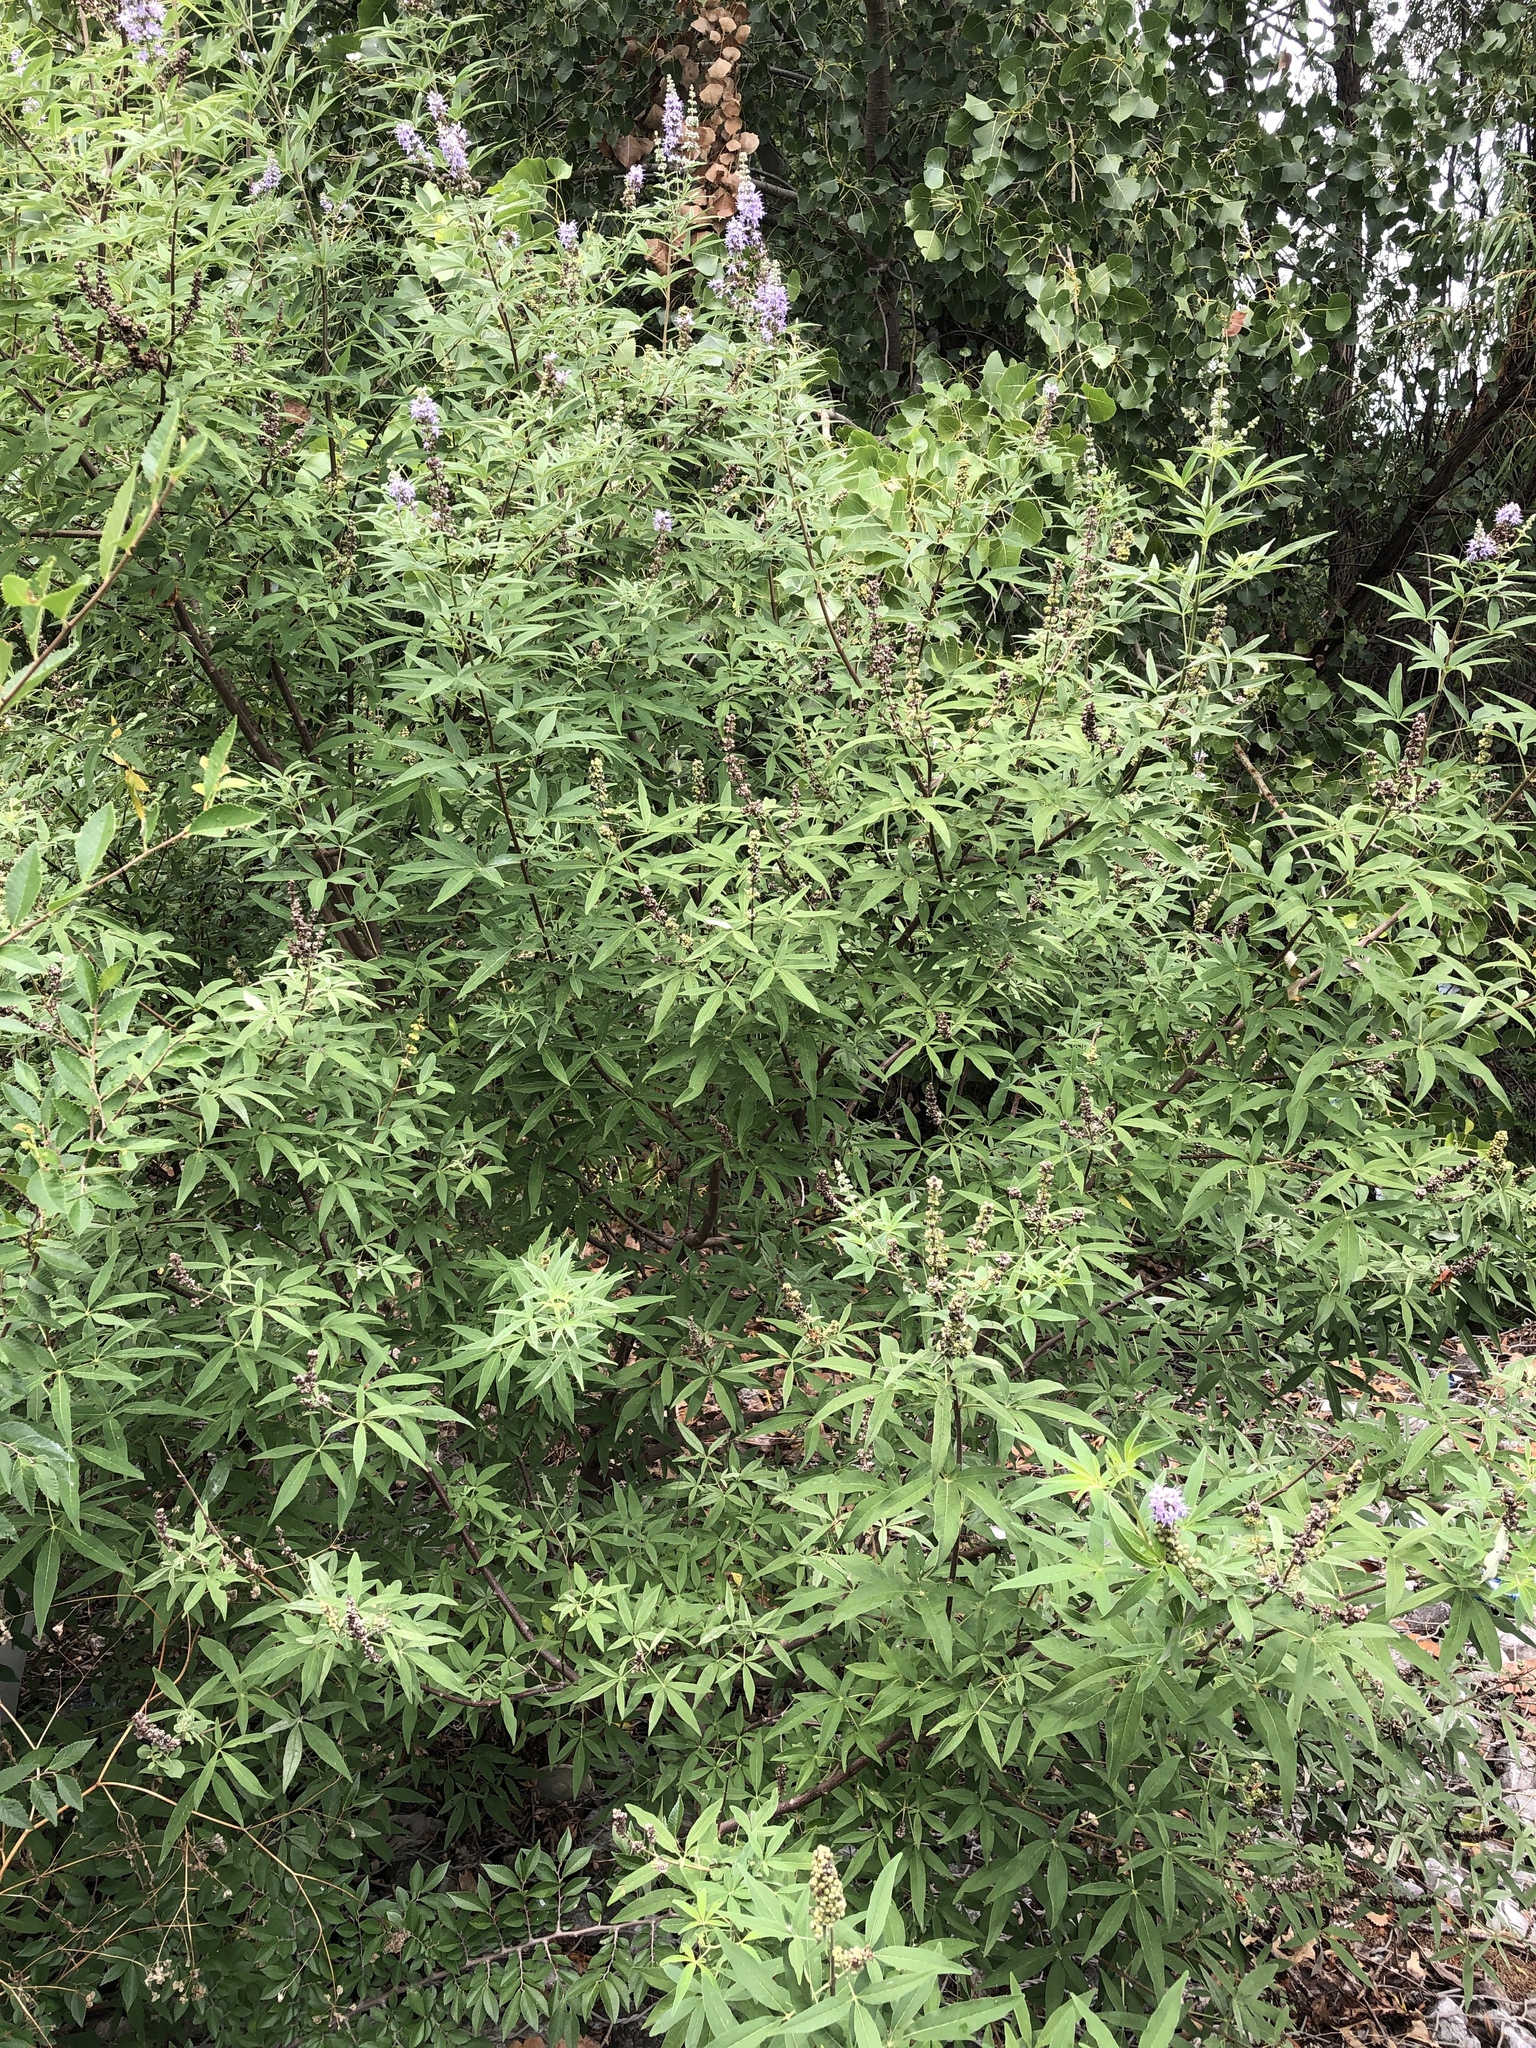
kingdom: Plantae
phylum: Tracheophyta
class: Magnoliopsida
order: Lamiales
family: Lamiaceae
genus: Vitex
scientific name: Vitex agnus-castus
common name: Chasteberry
